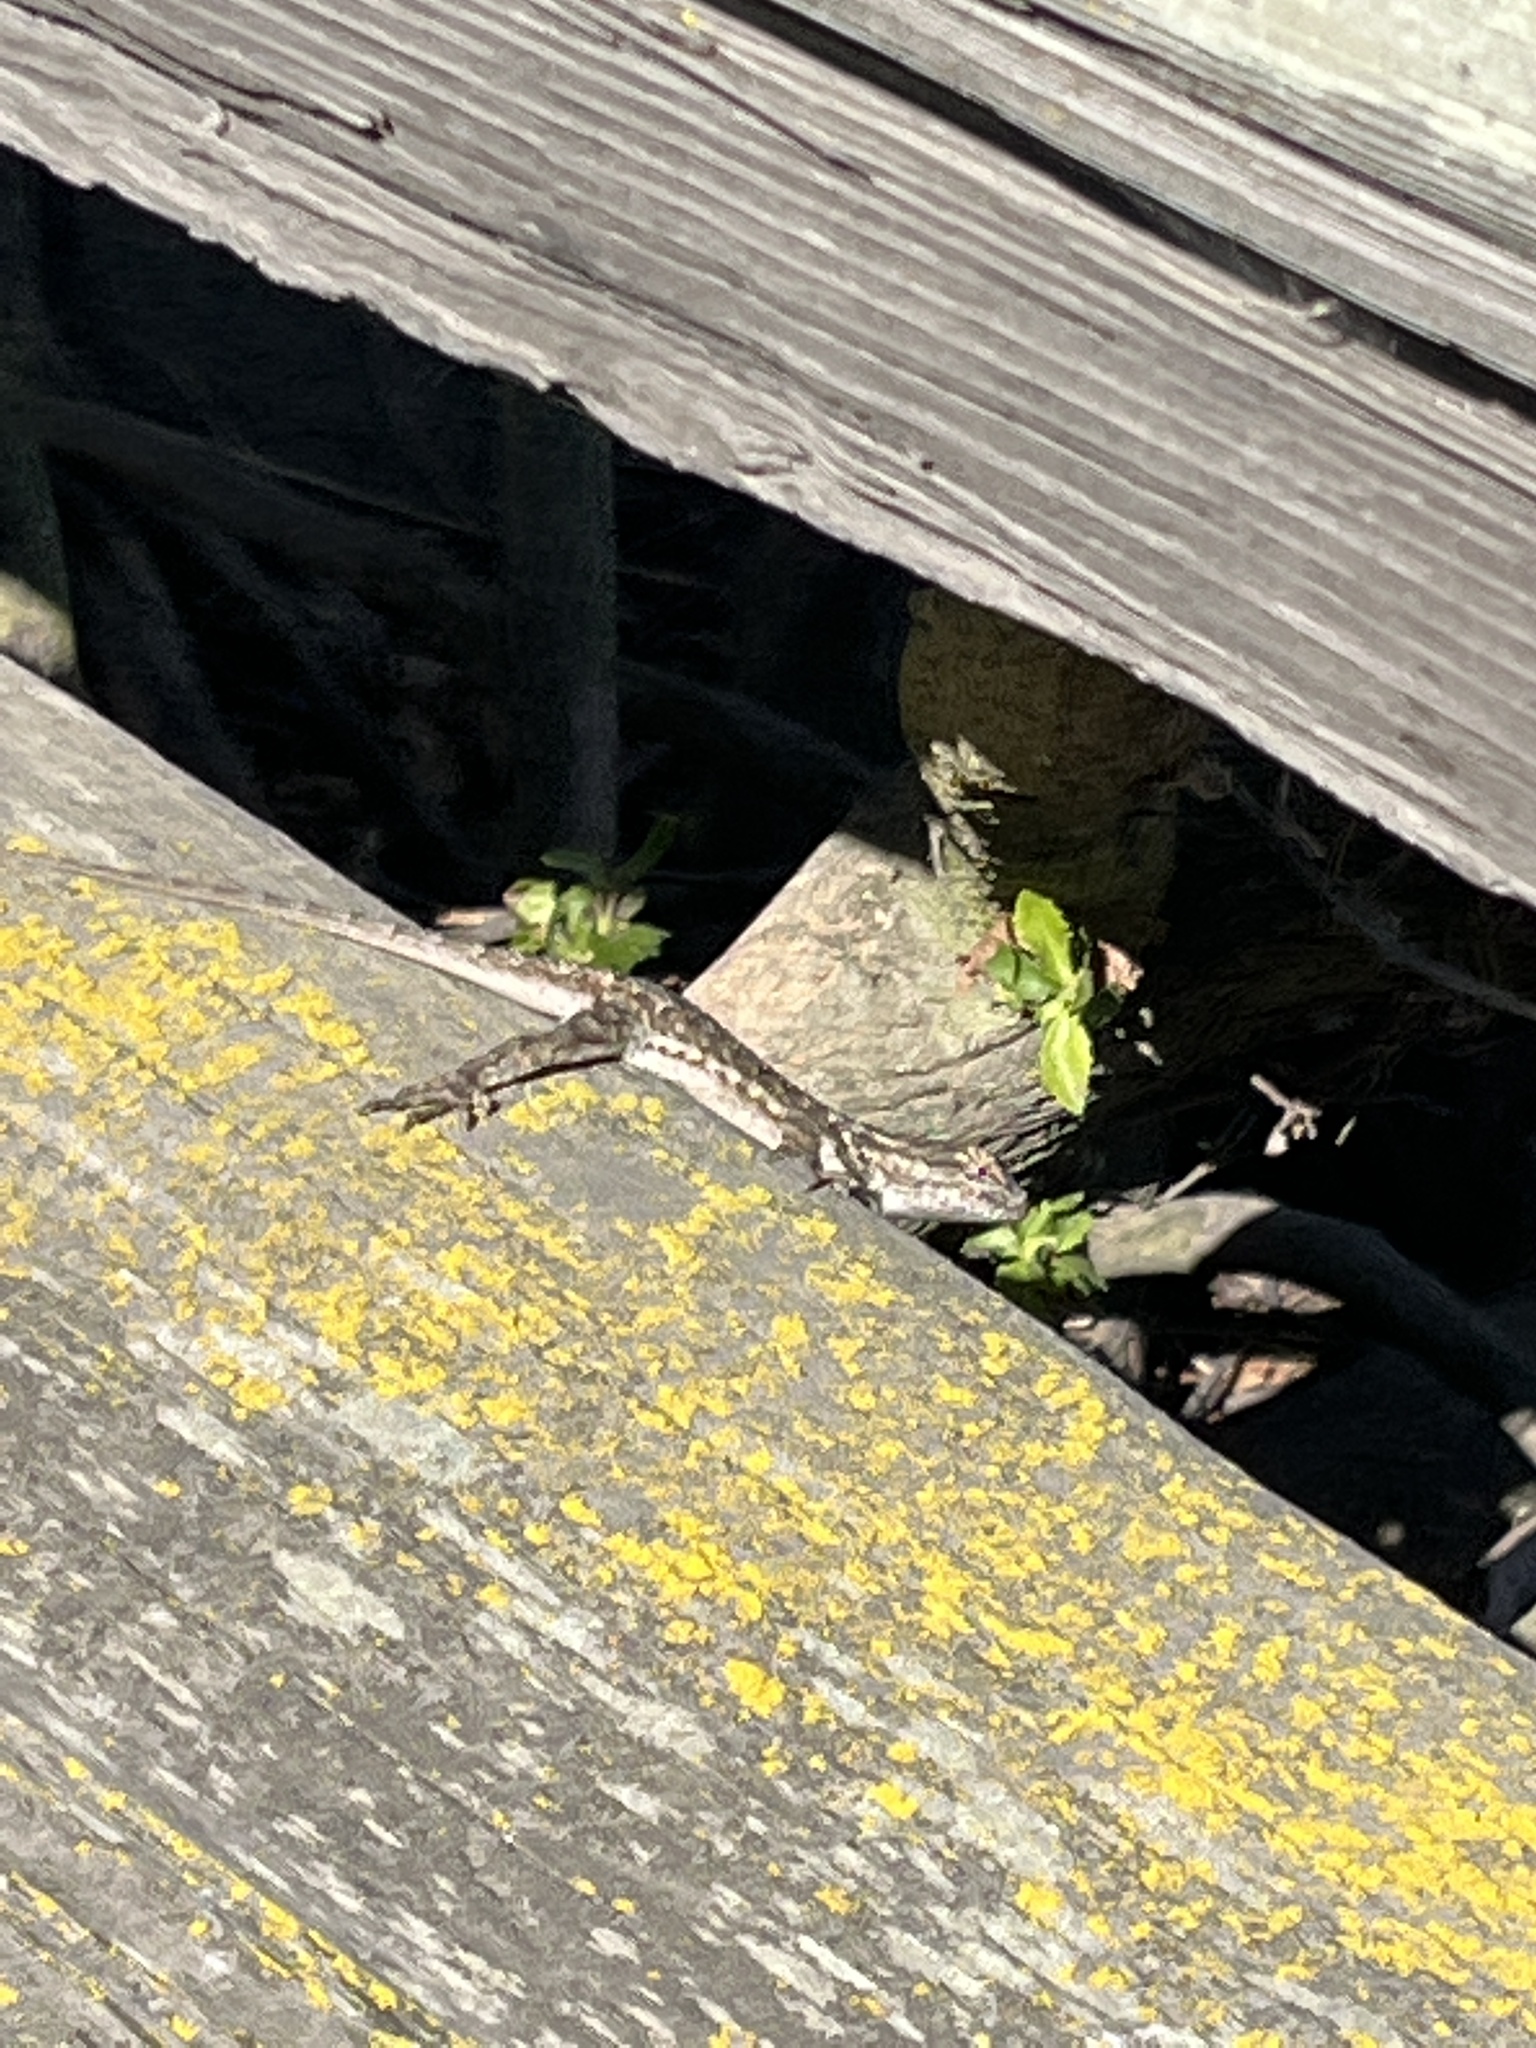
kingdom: Animalia
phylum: Chordata
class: Squamata
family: Phrynosomatidae
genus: Sceloporus
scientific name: Sceloporus occidentalis
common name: Western fence lizard
